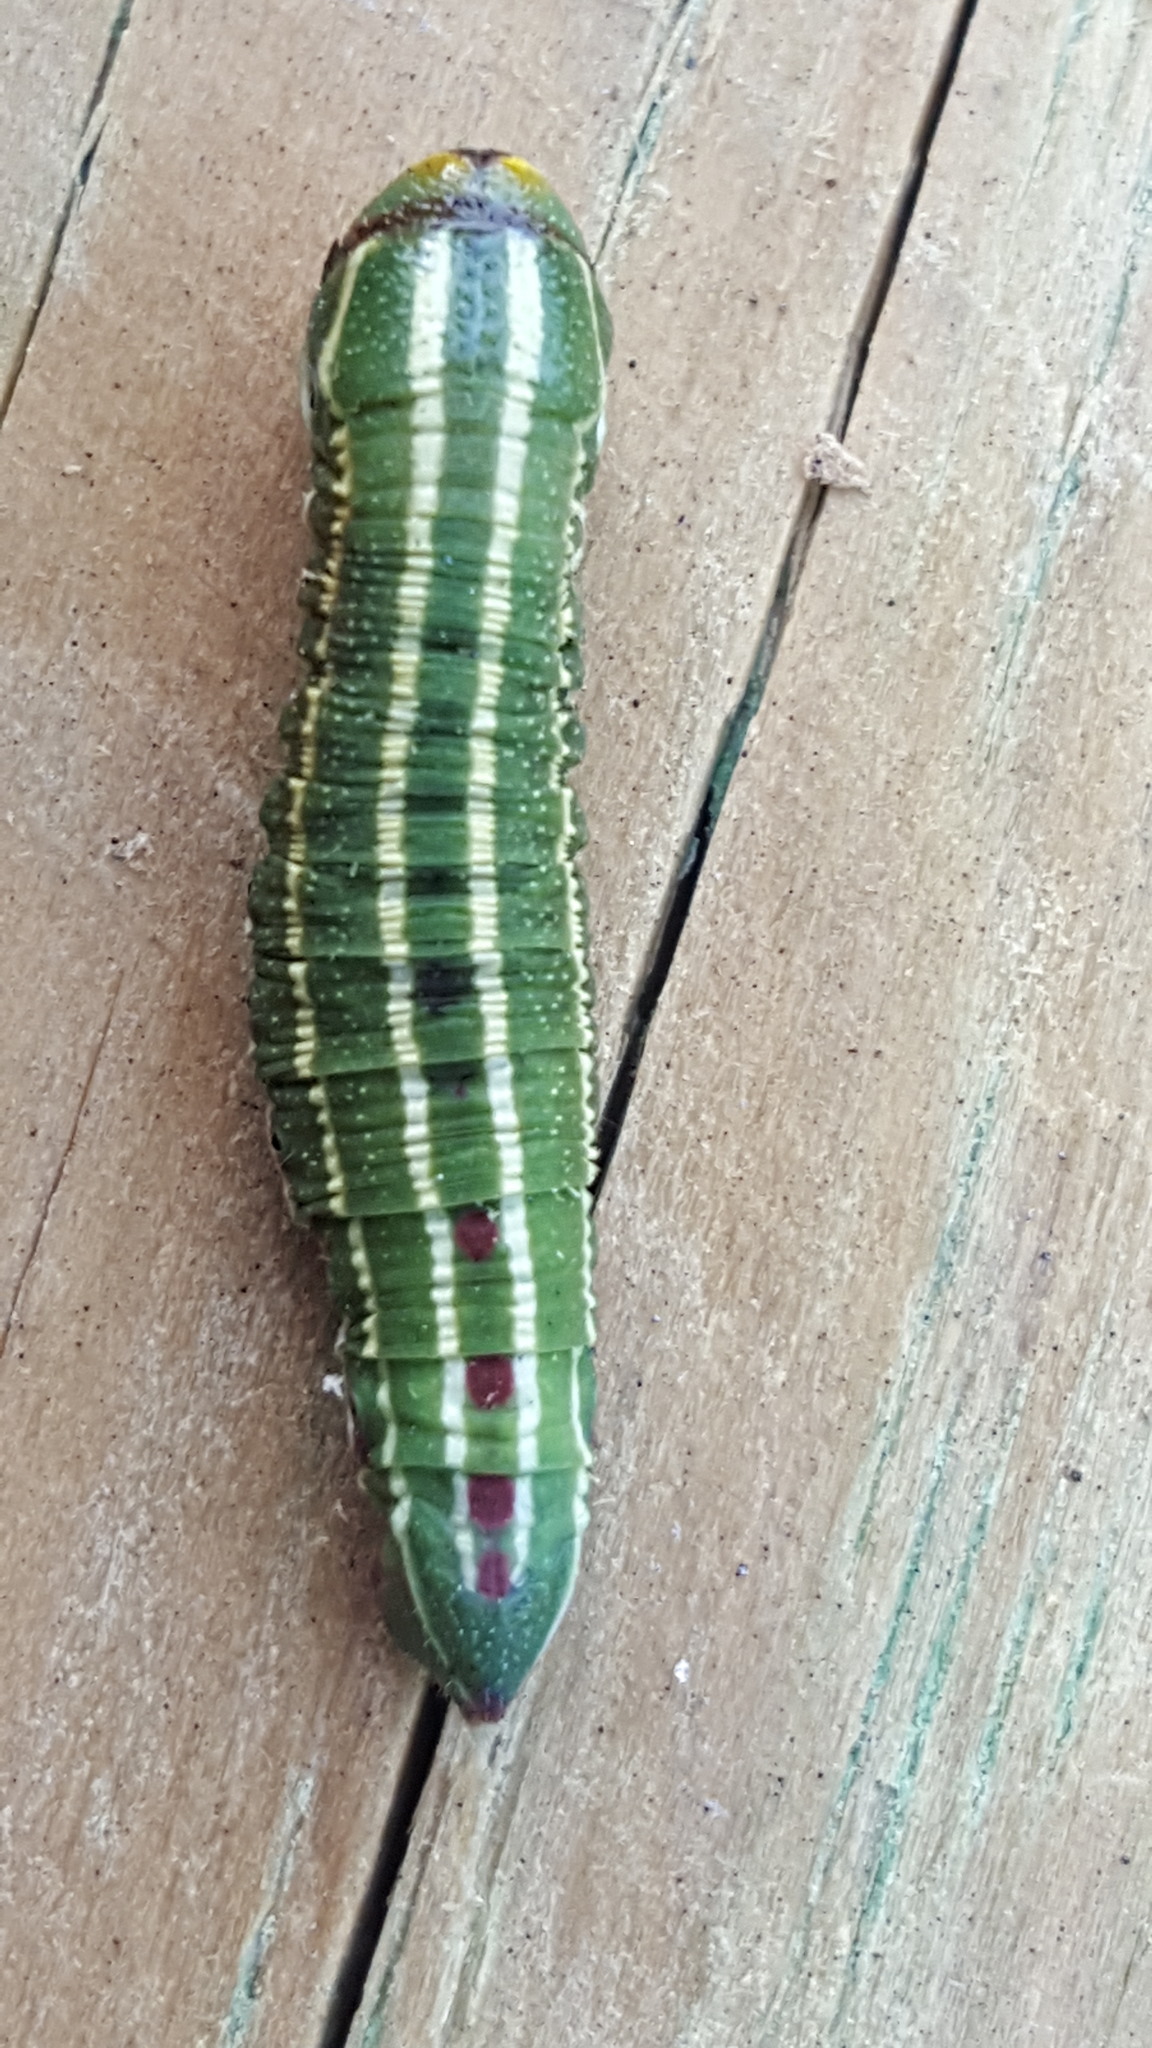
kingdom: Animalia
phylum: Arthropoda
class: Insecta
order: Lepidoptera
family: Sphingidae
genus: Lapara
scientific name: Lapara bombycoides
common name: Northern pine sphinx
